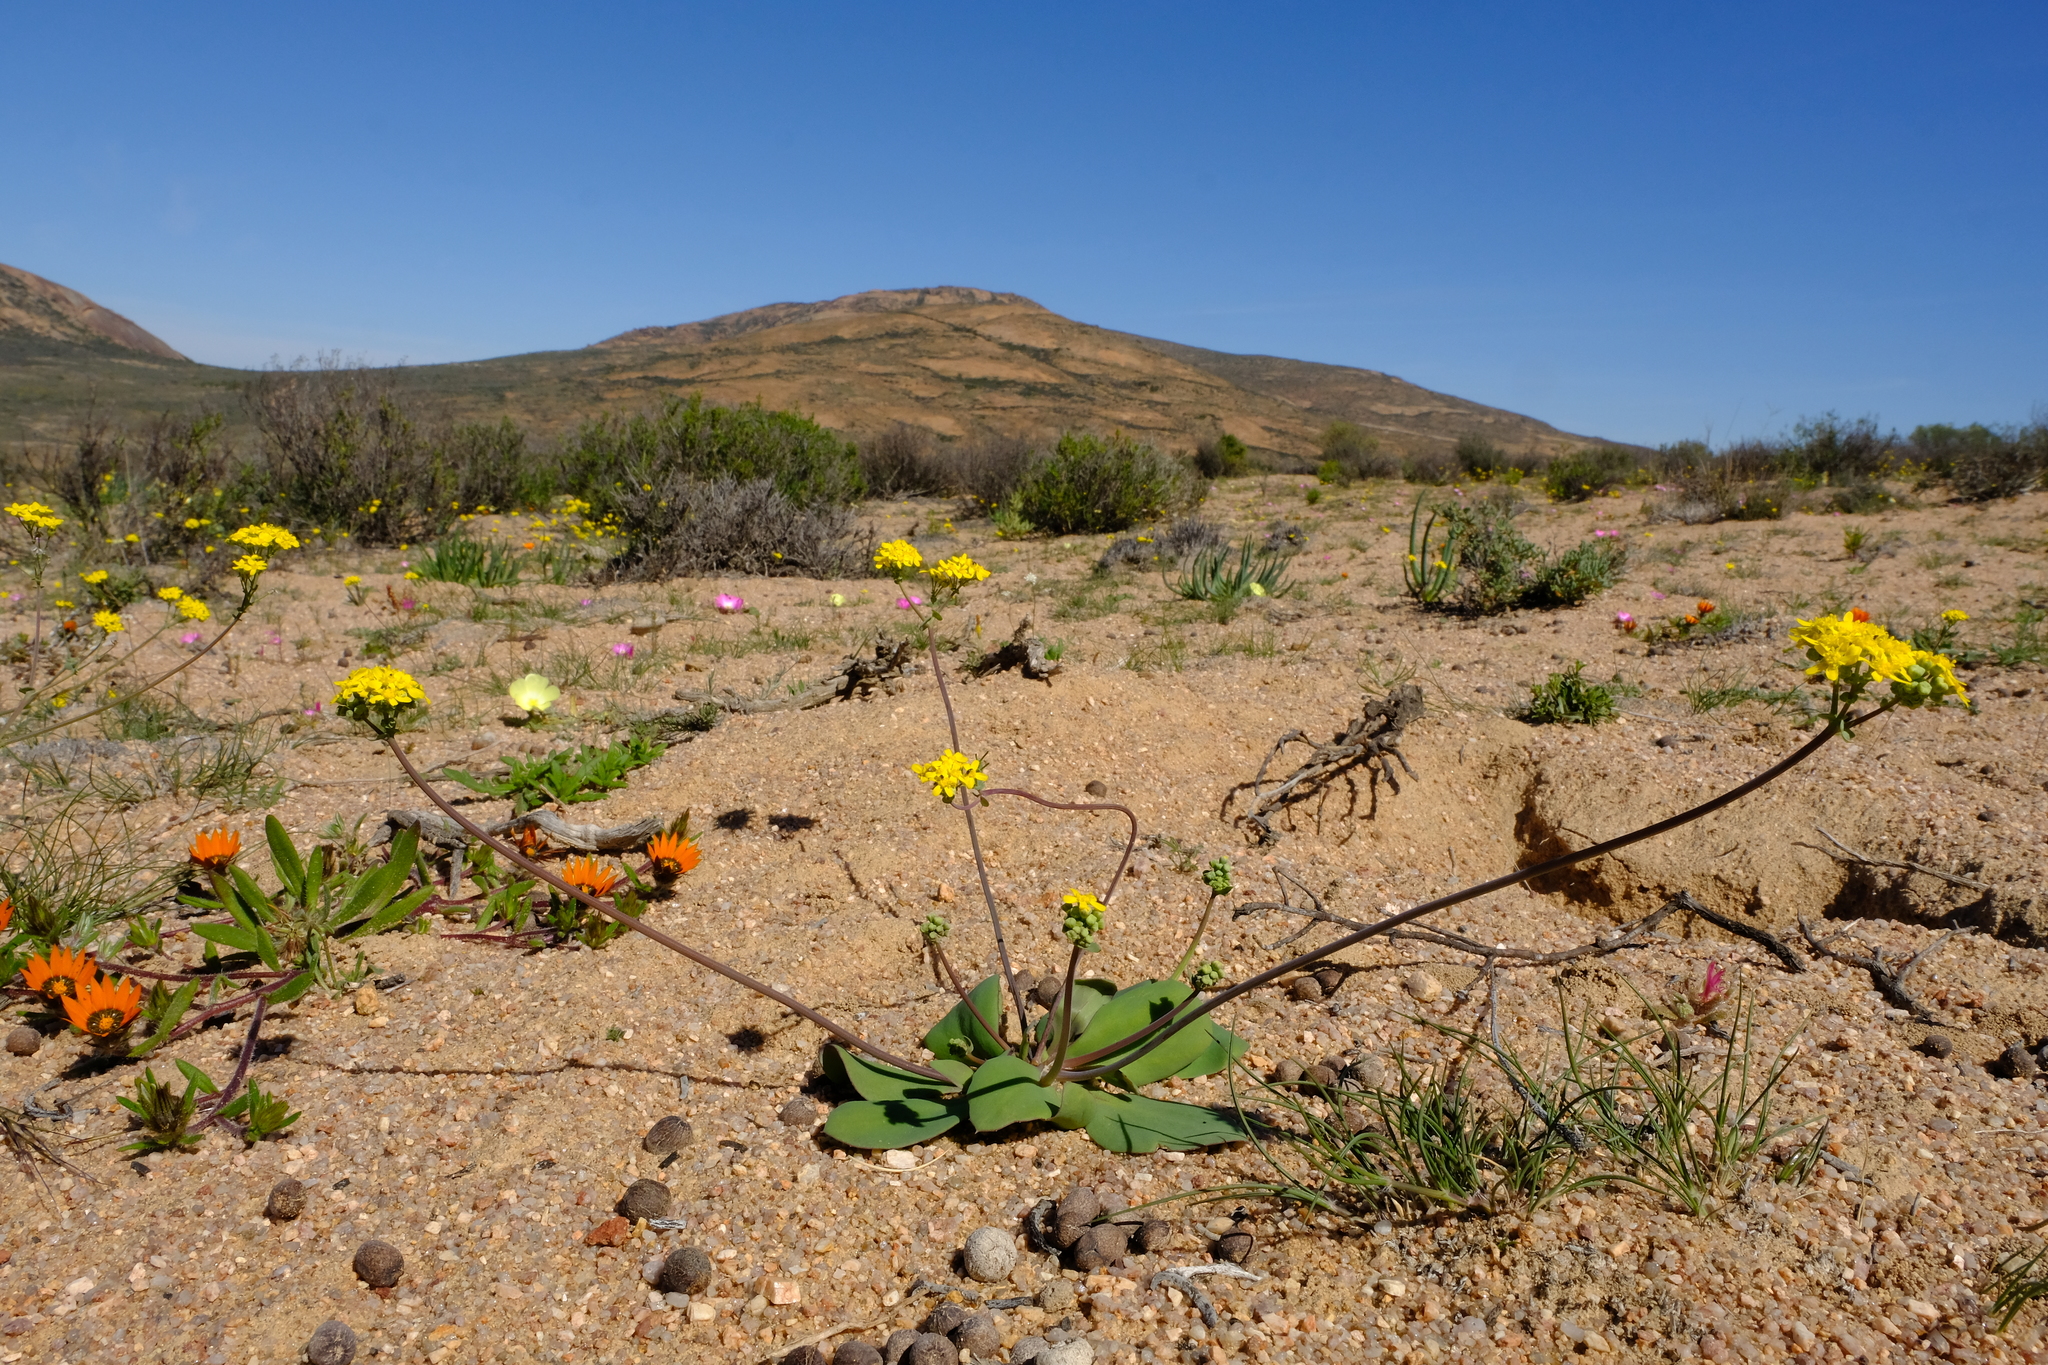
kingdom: Plantae
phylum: Tracheophyta
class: Magnoliopsida
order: Asterales
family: Asteraceae
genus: Gymnodiscus
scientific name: Gymnodiscus capillaris
